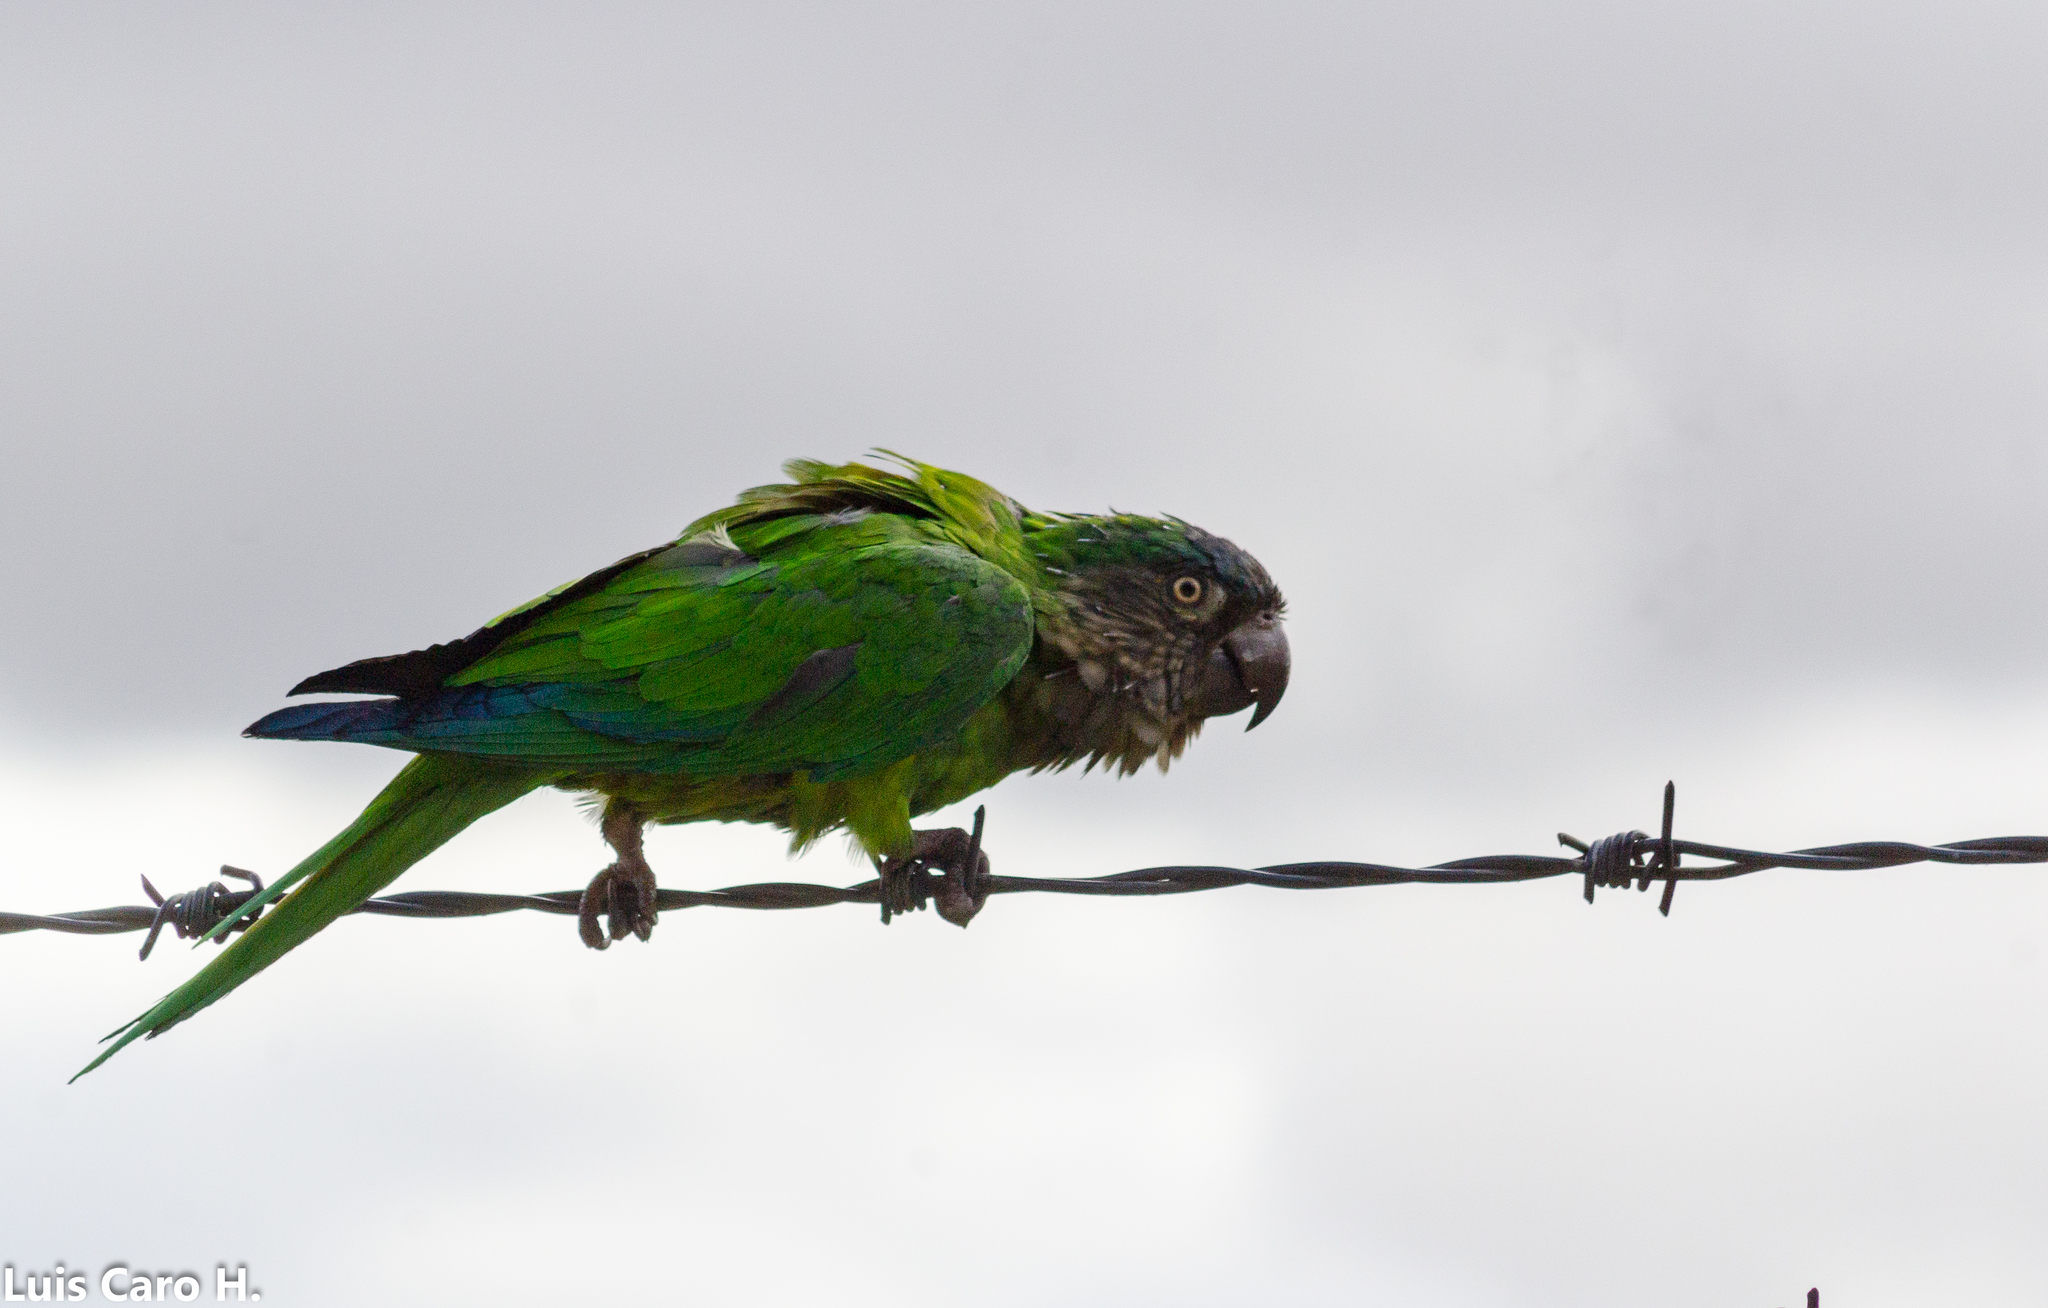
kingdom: Animalia
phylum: Chordata
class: Aves
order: Psittaciformes
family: Psittacidae
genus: Aratinga
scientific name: Aratinga pertinax
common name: Brown-throated parakeet
